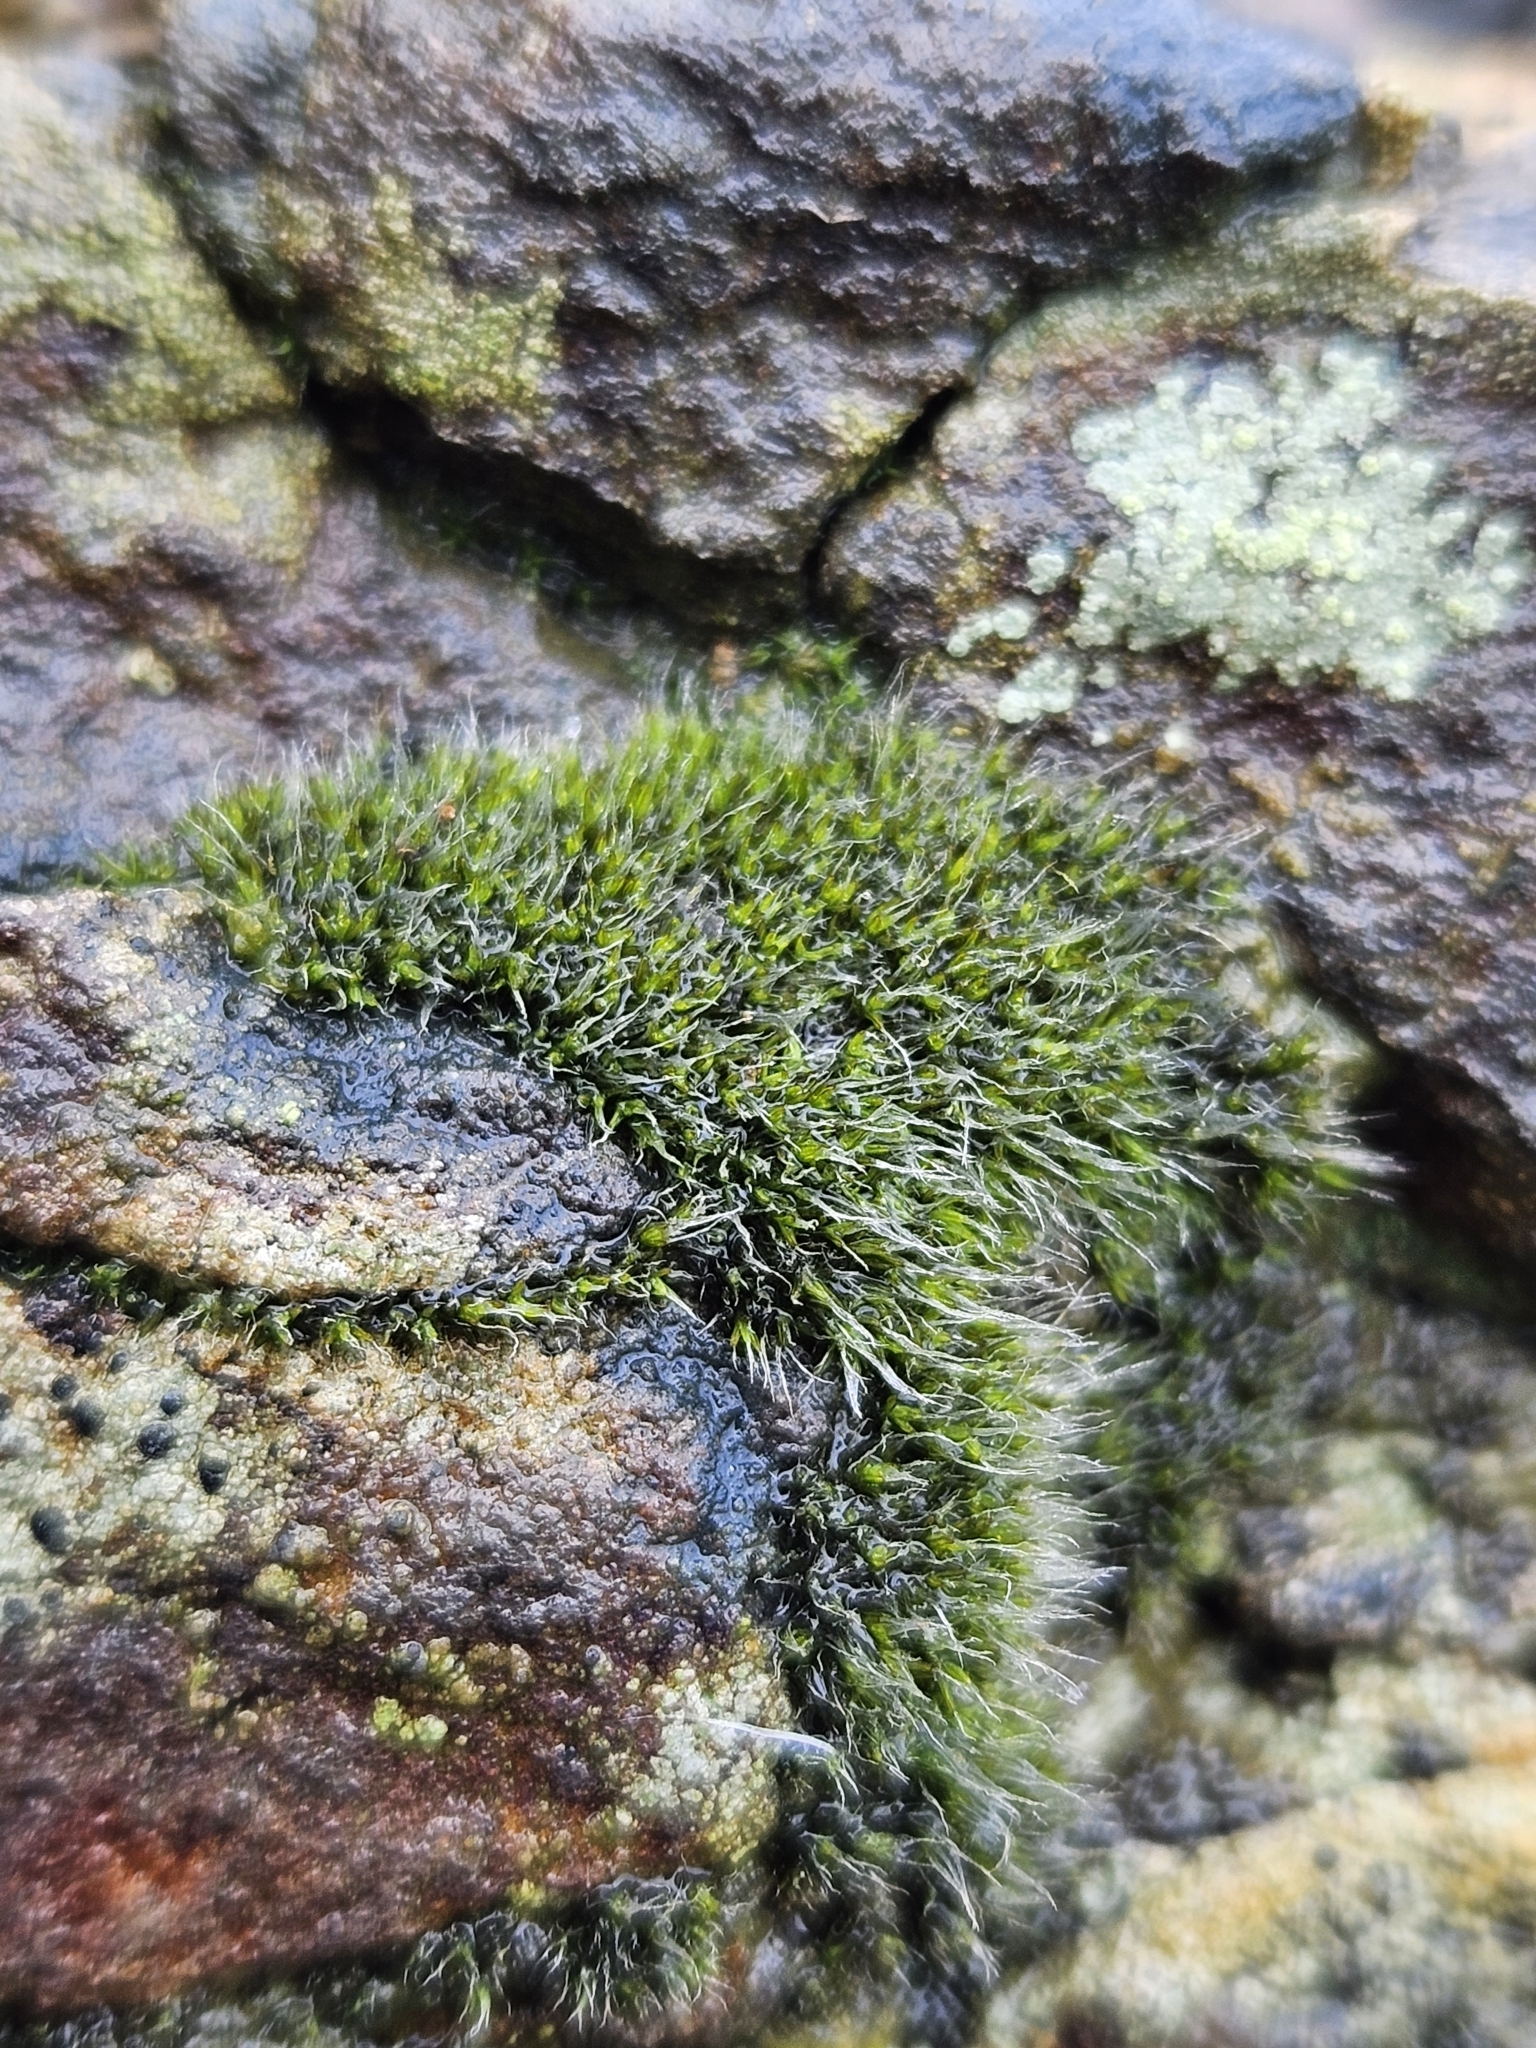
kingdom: Plantae
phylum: Bryophyta
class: Bryopsida
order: Grimmiales
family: Grimmiaceae
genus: Coscinodon
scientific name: Coscinodon cribrosus
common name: Sieve-tooth moss
